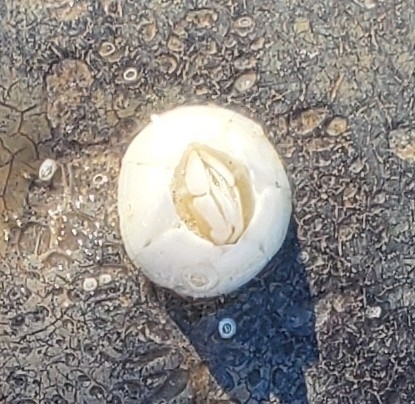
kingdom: Animalia
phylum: Arthropoda
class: Maxillopoda
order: Sessilia
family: Chelonibiidae
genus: Chelonibia
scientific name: Chelonibia testudinaria
